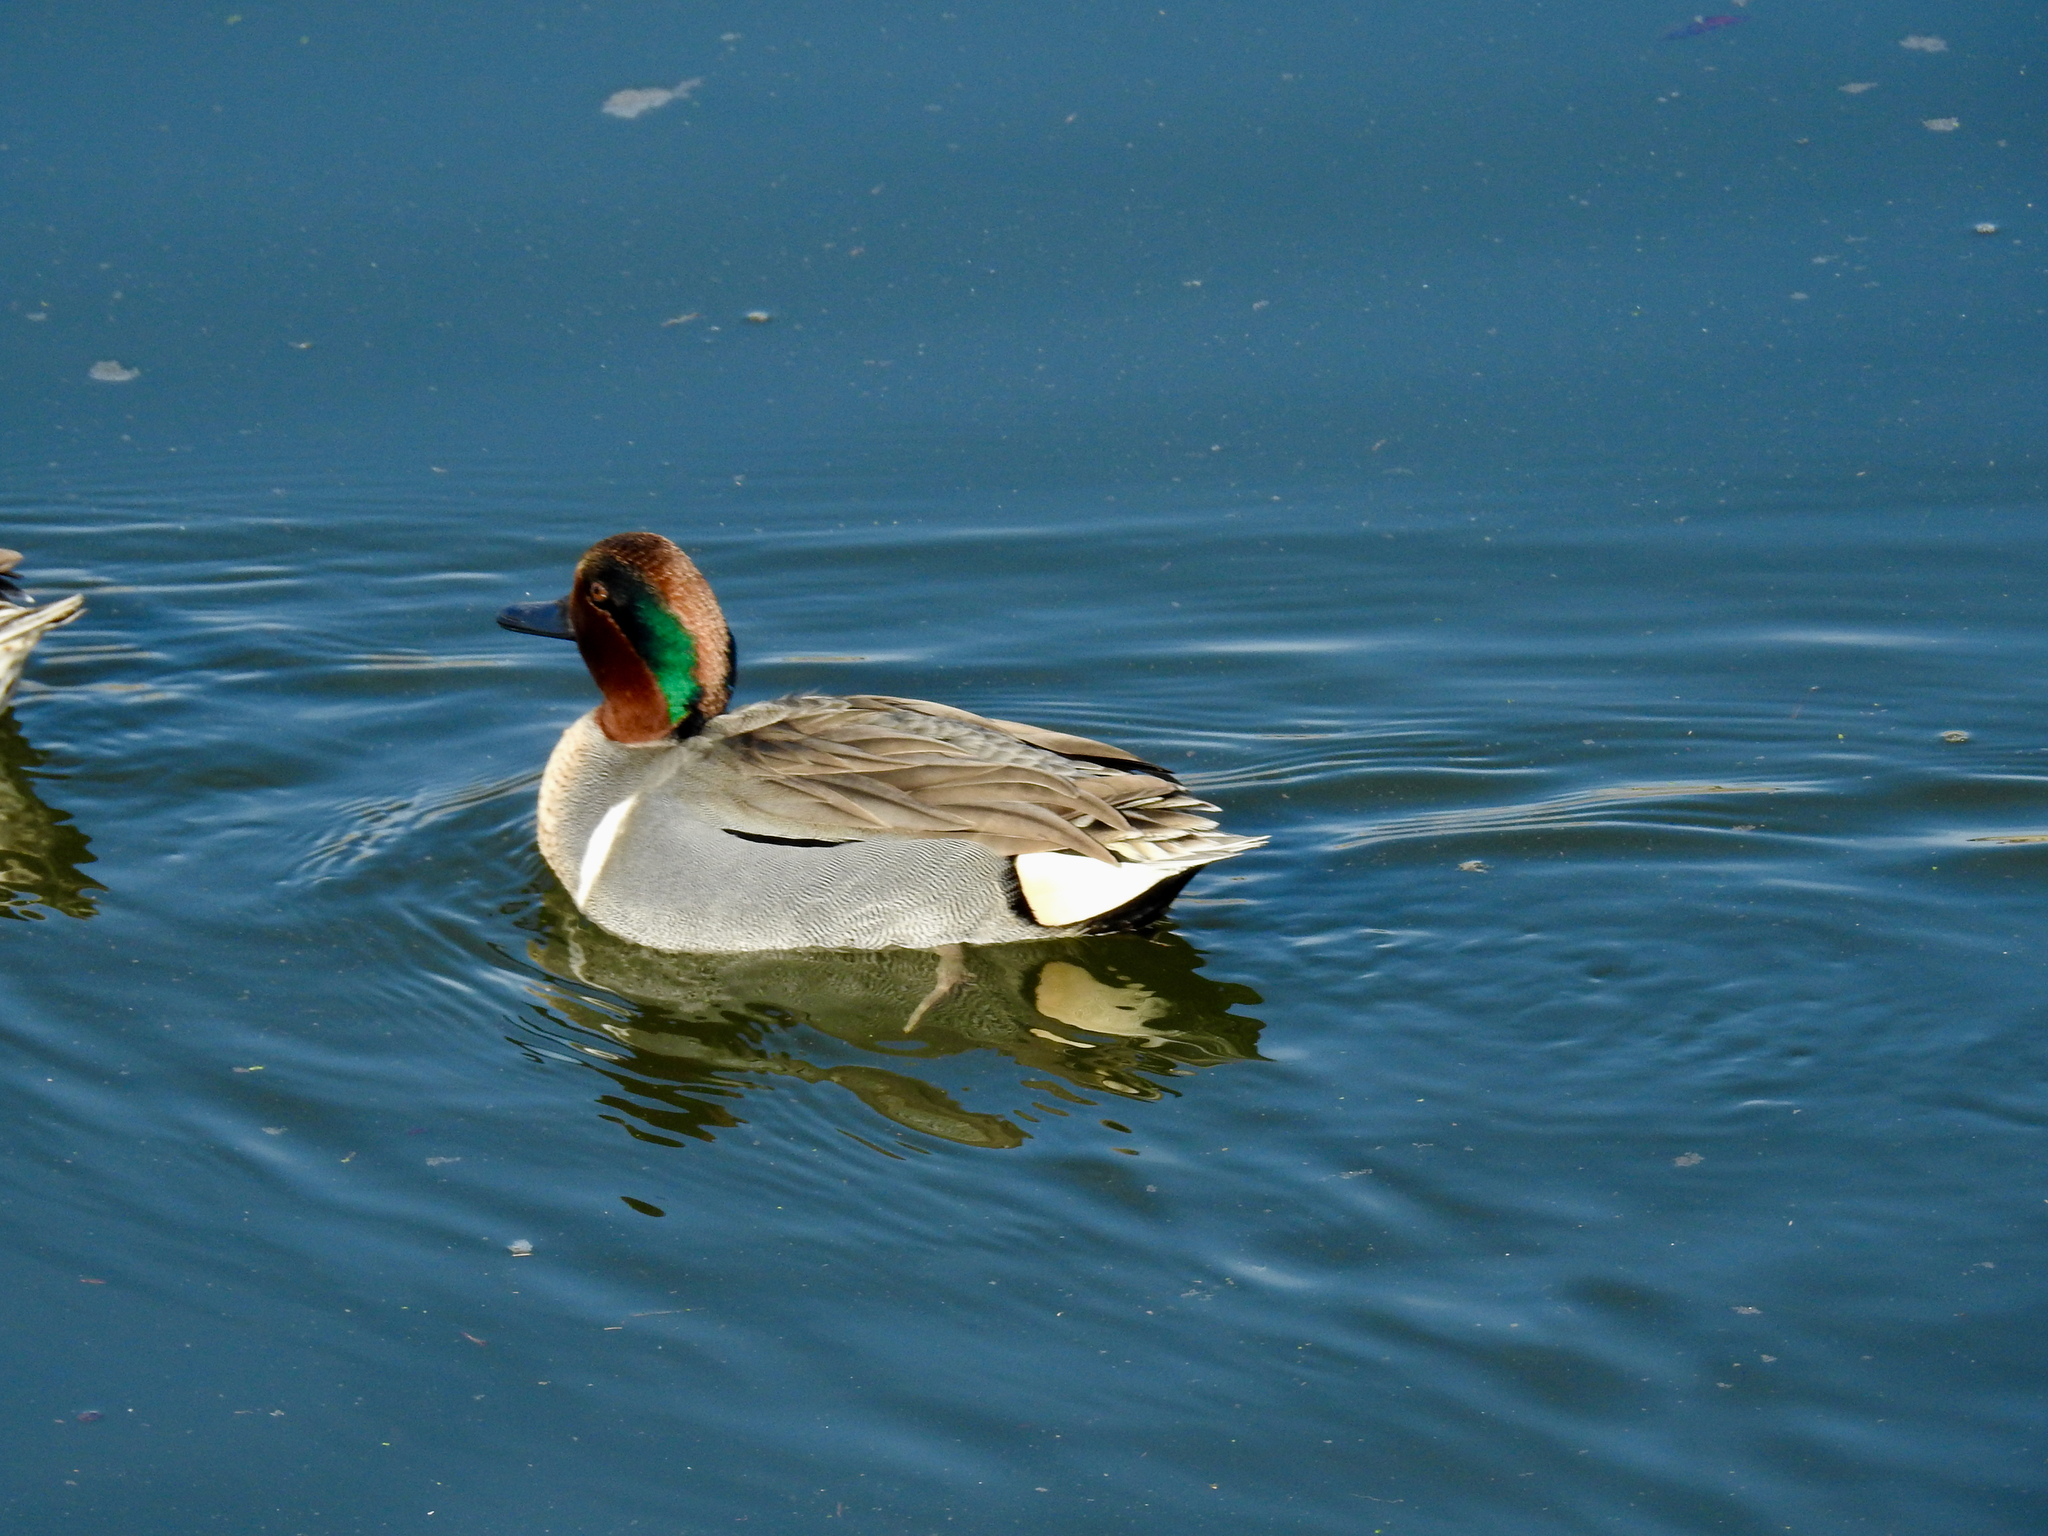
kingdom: Animalia
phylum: Chordata
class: Aves
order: Anseriformes
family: Anatidae
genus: Anas
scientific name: Anas crecca
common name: Eurasian teal
